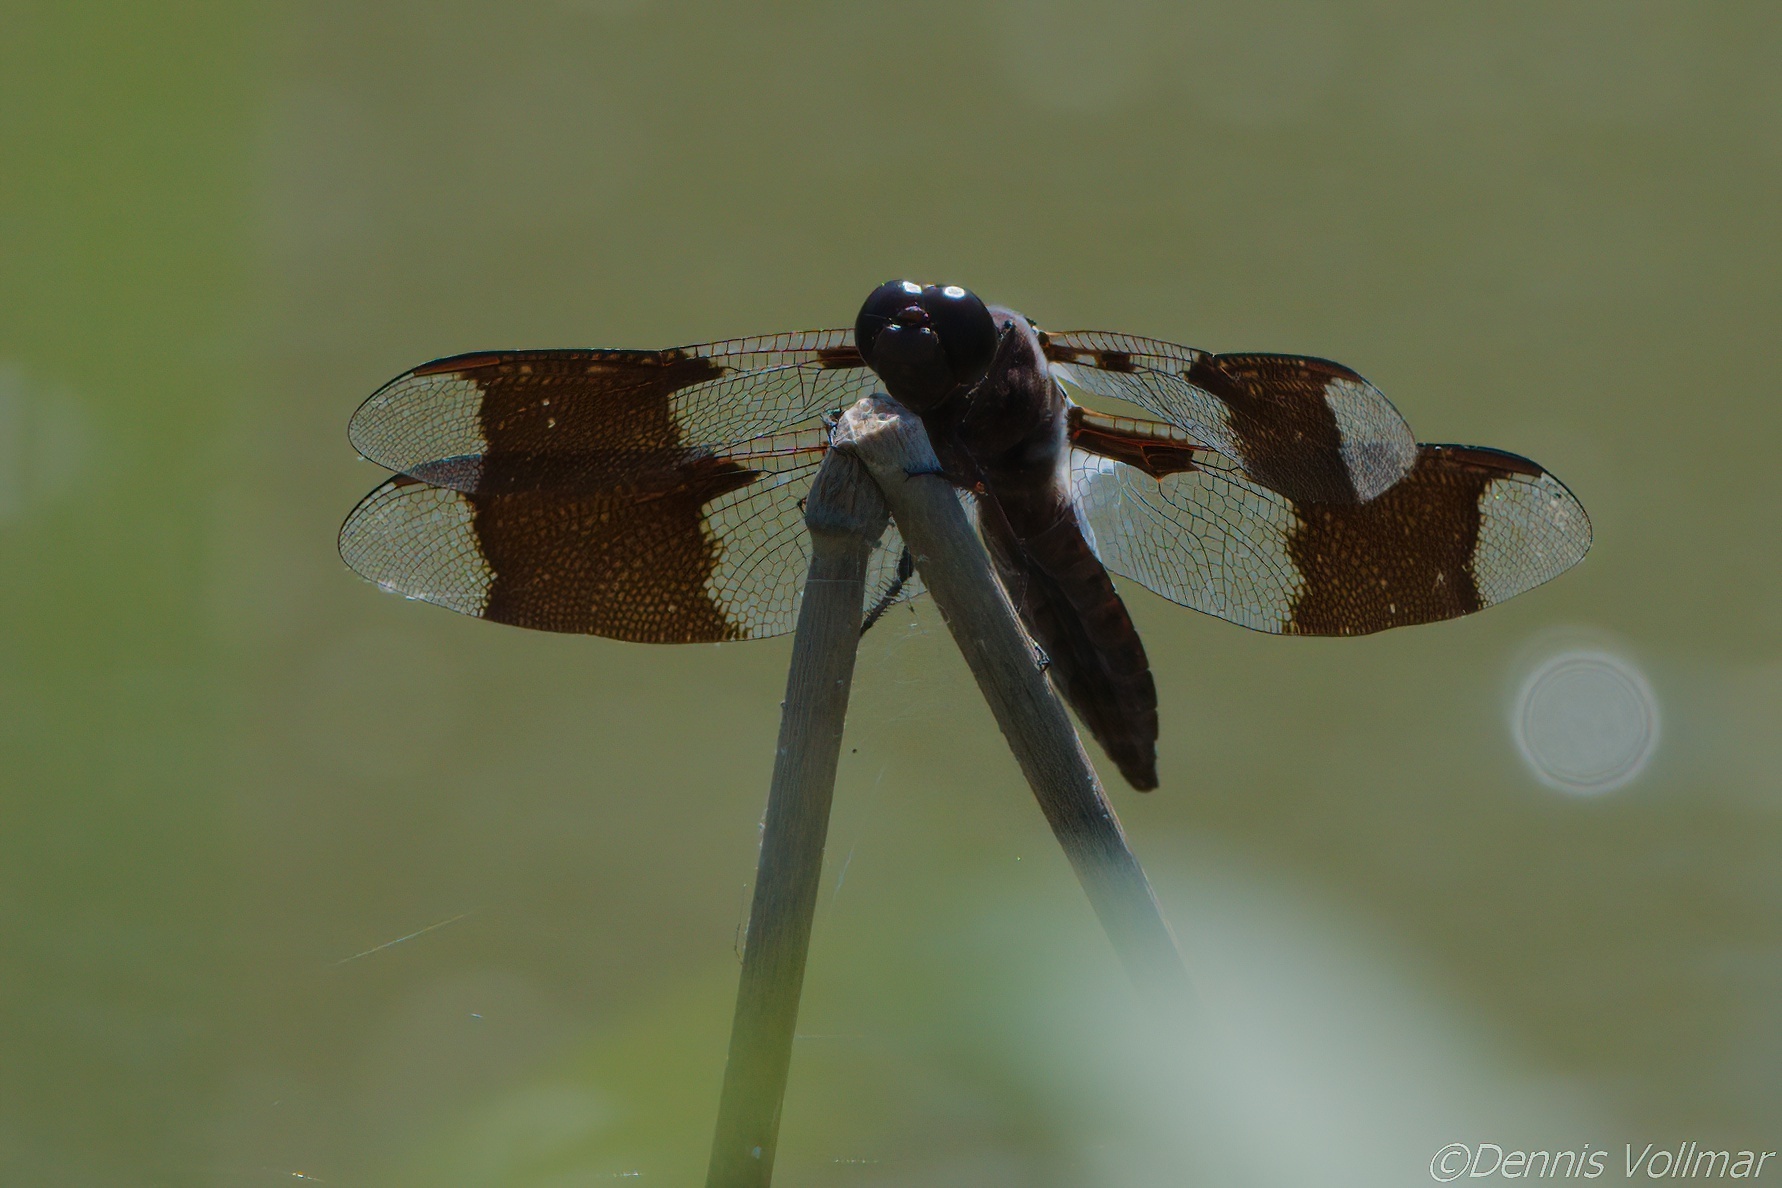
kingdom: Animalia
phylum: Arthropoda
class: Insecta
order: Odonata
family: Libellulidae
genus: Plathemis
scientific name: Plathemis lydia
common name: Common whitetail
